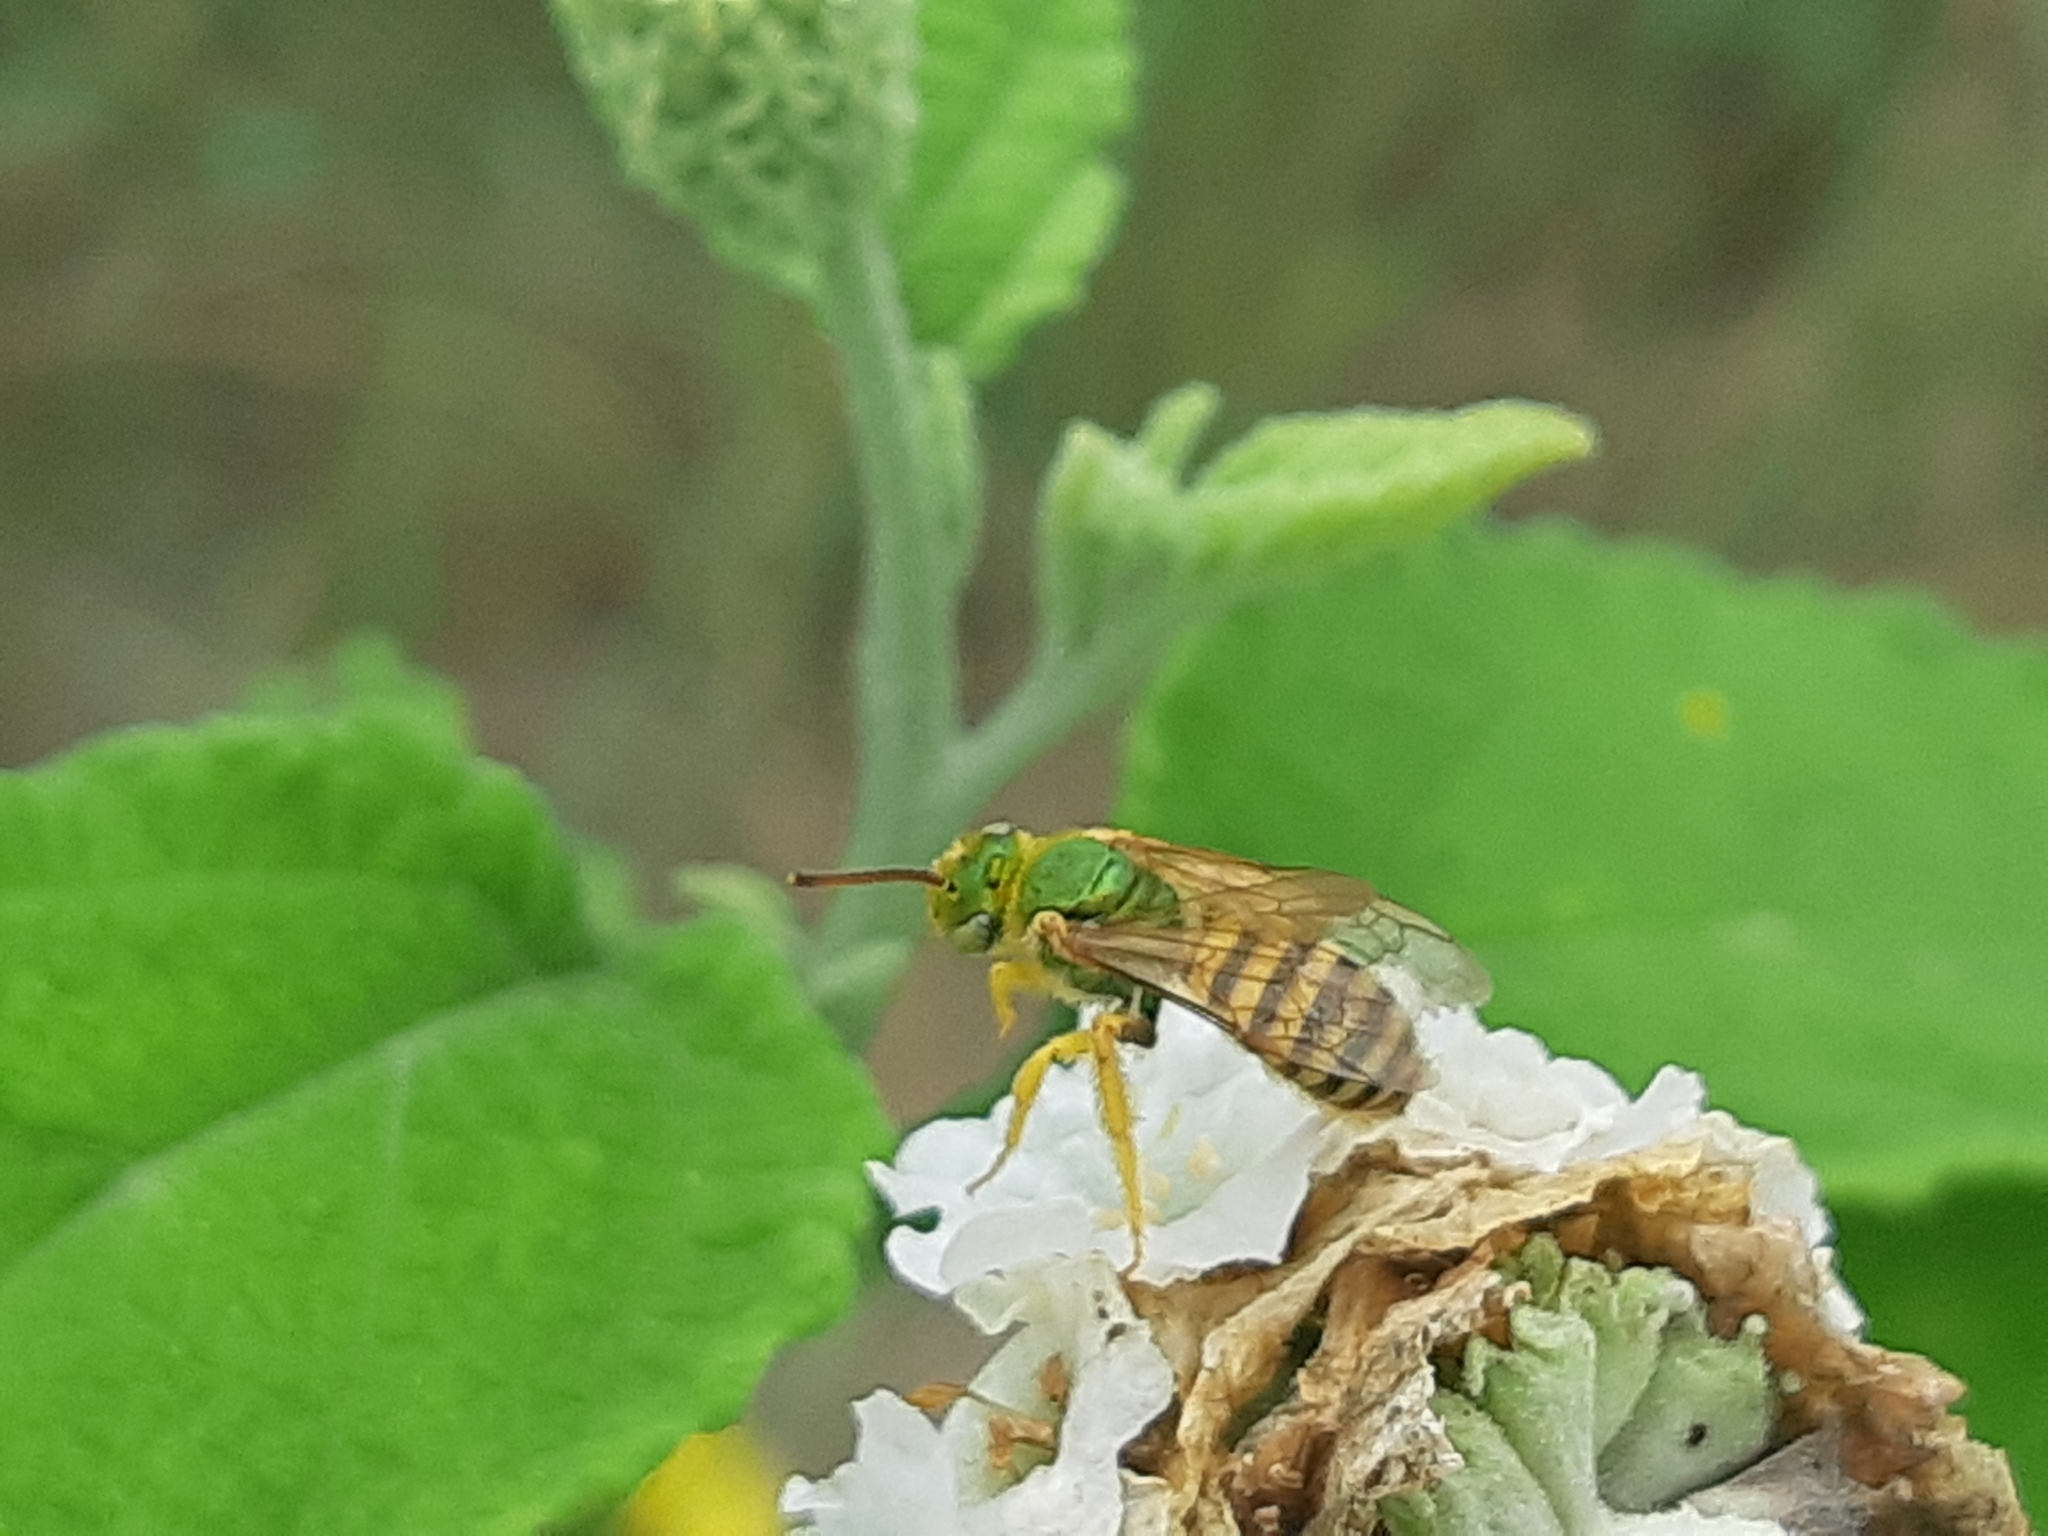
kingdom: Animalia
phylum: Arthropoda
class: Insecta
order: Hymenoptera
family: Halictidae
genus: Agapostemon
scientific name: Agapostemon nasutus
